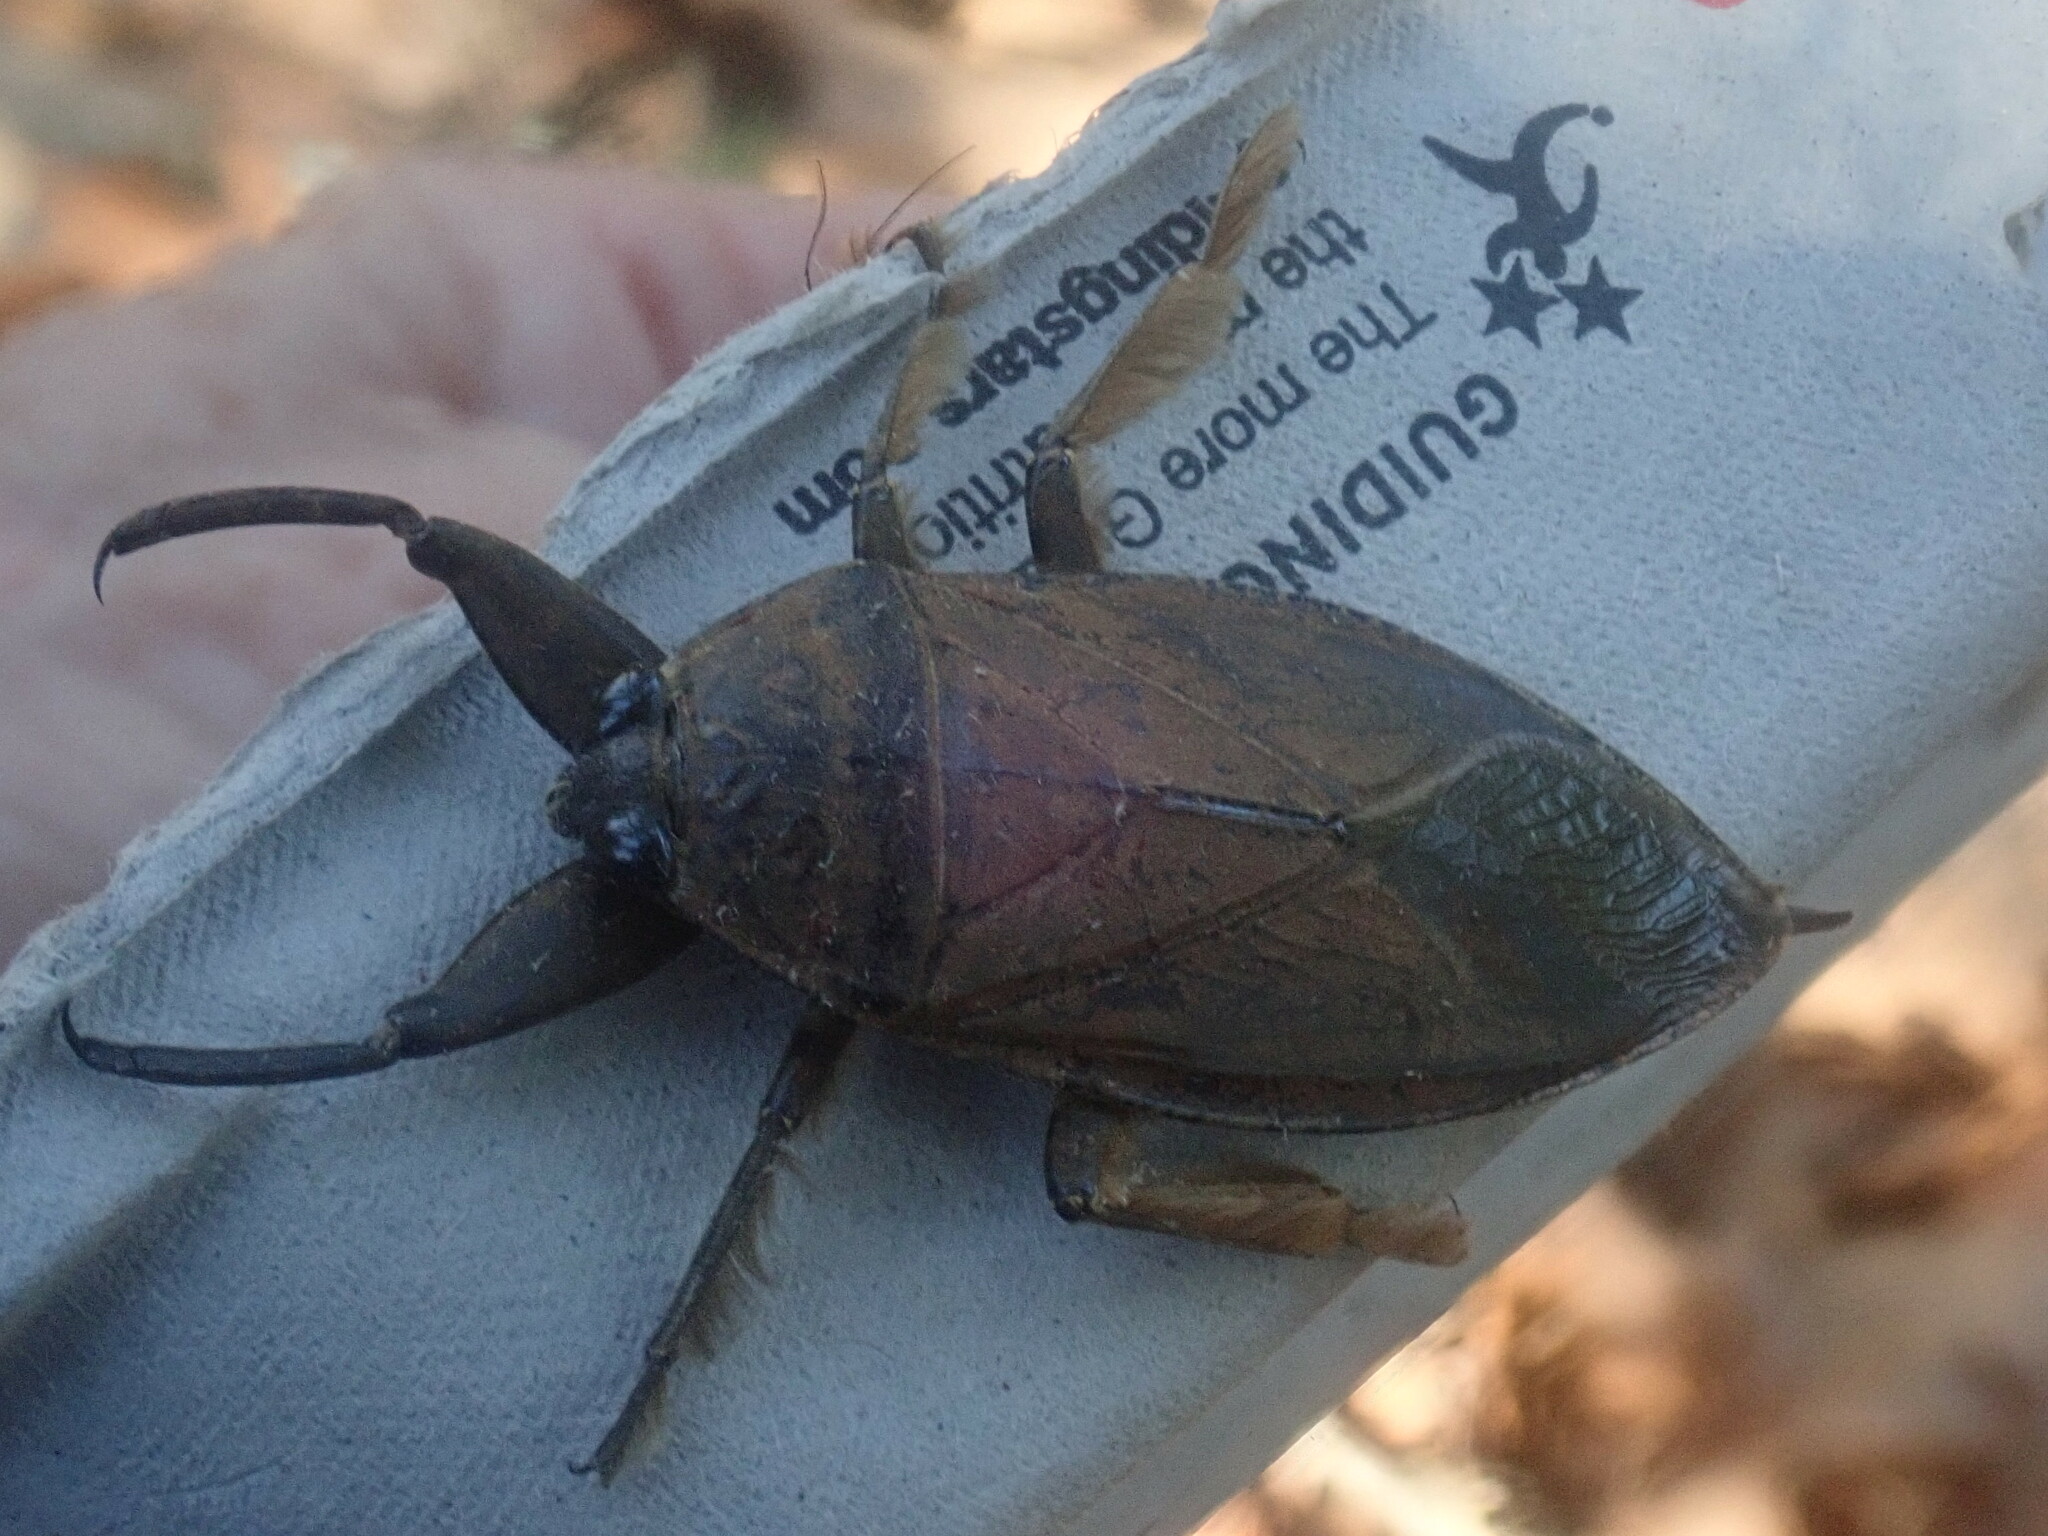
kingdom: Animalia
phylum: Arthropoda
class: Insecta
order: Hemiptera
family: Belostomatidae
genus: Lethocerus
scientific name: Lethocerus americanus
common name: Giant water bug
